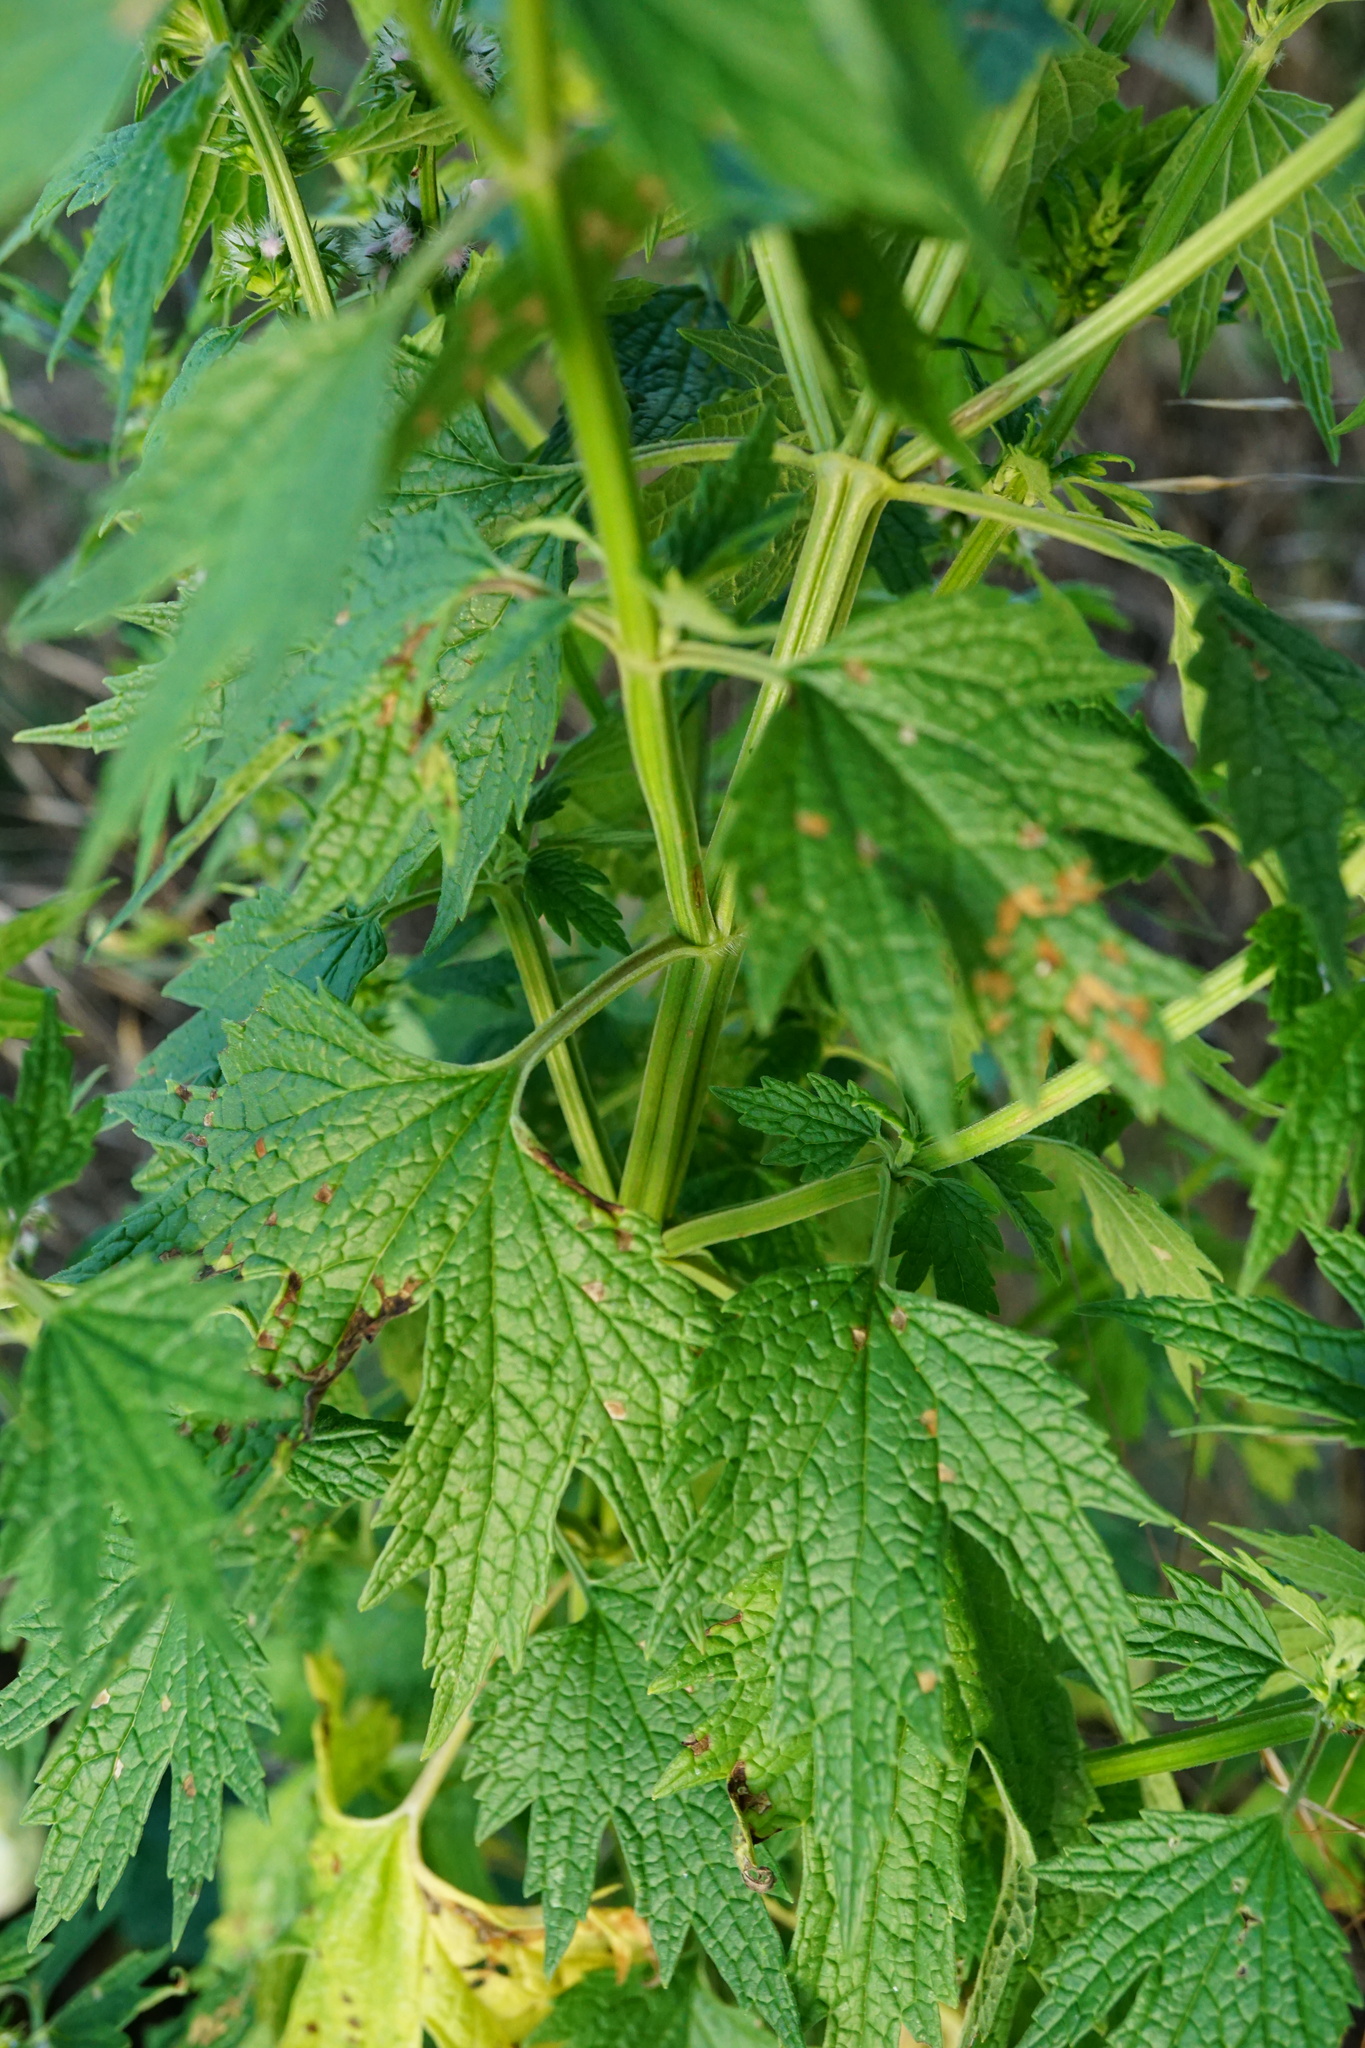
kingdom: Plantae
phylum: Tracheophyta
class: Magnoliopsida
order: Lamiales
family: Lamiaceae
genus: Leonurus
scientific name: Leonurus cardiaca
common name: Motherwort
